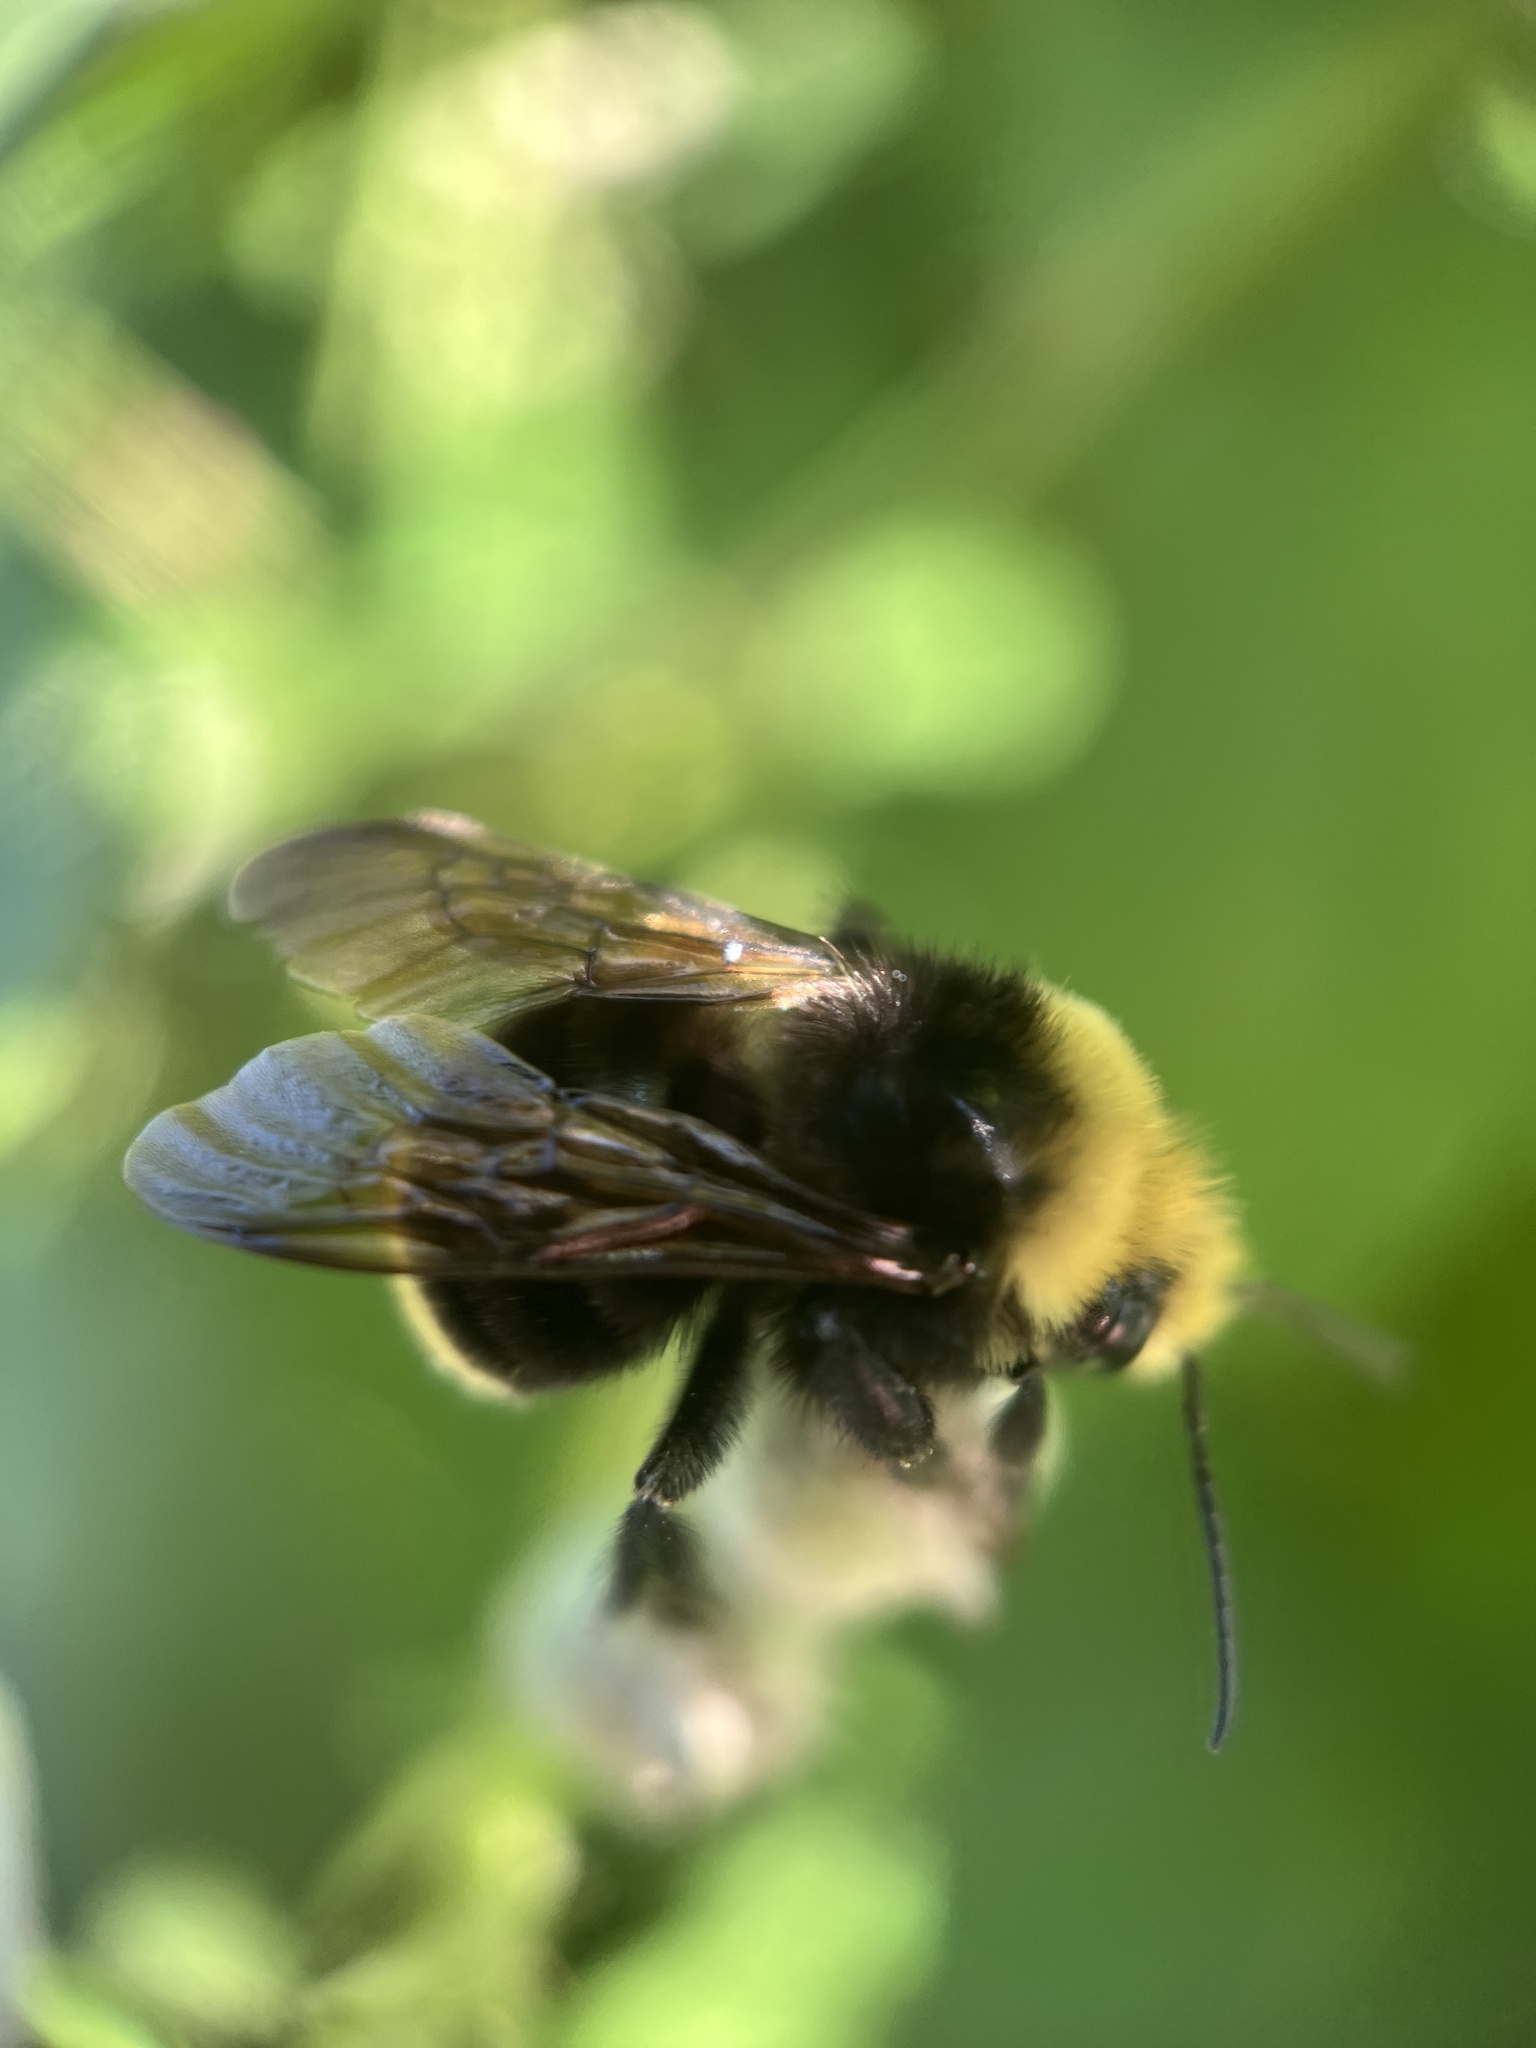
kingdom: Animalia
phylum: Arthropoda
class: Insecta
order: Hymenoptera
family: Apidae
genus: Bombus
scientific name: Bombus vosnesenskii
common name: Vosnesensky bumble bee
